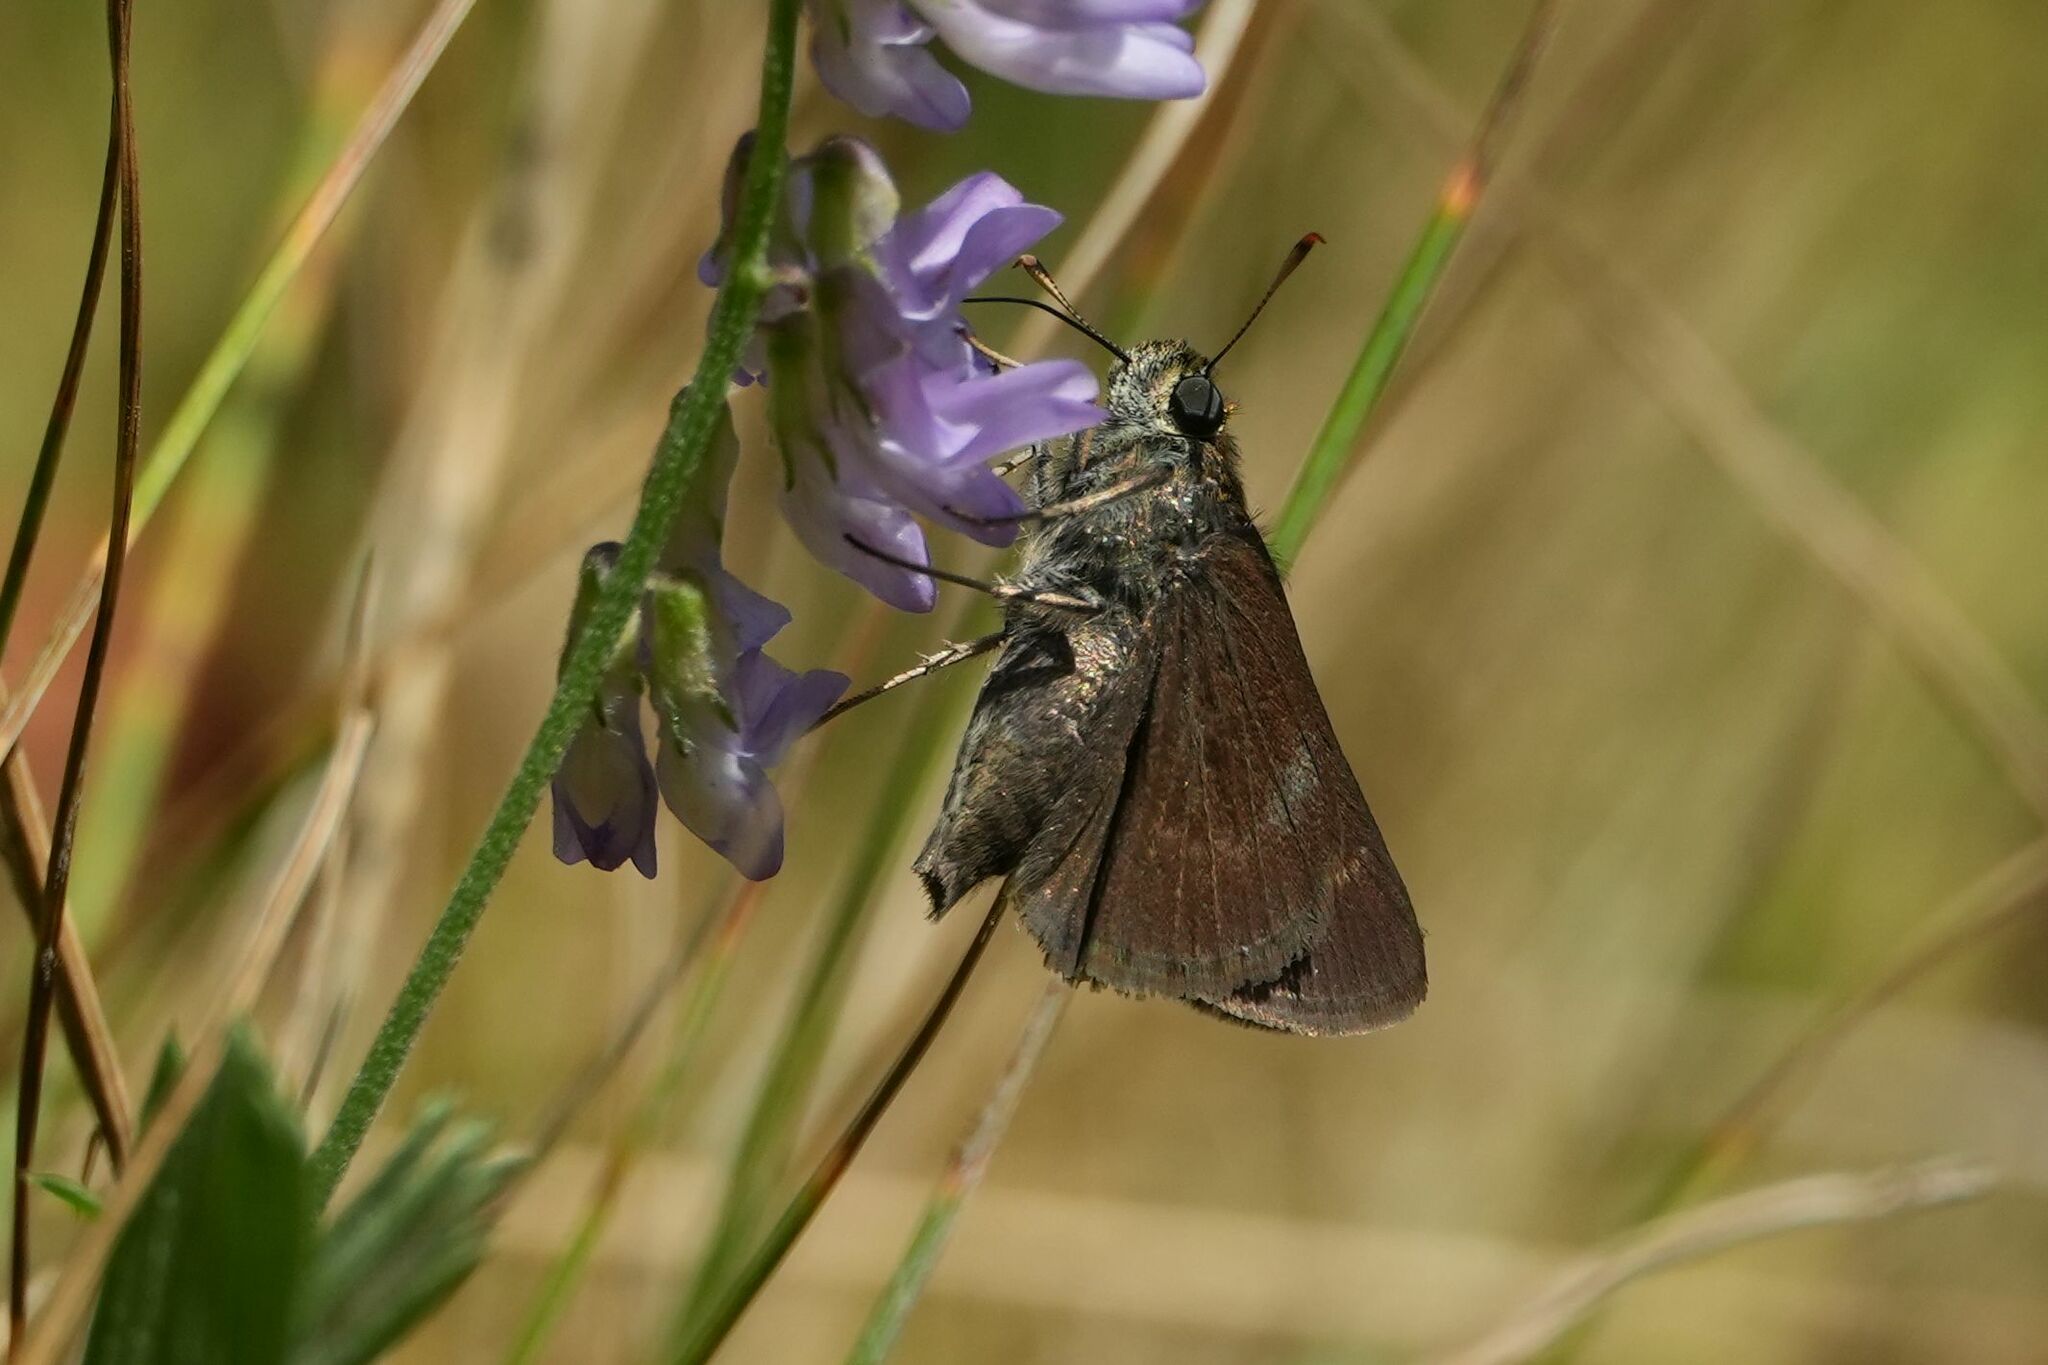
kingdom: Animalia
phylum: Arthropoda
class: Insecta
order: Lepidoptera
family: Hesperiidae
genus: Euphyes
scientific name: Euphyes vestris
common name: Dun skipper
